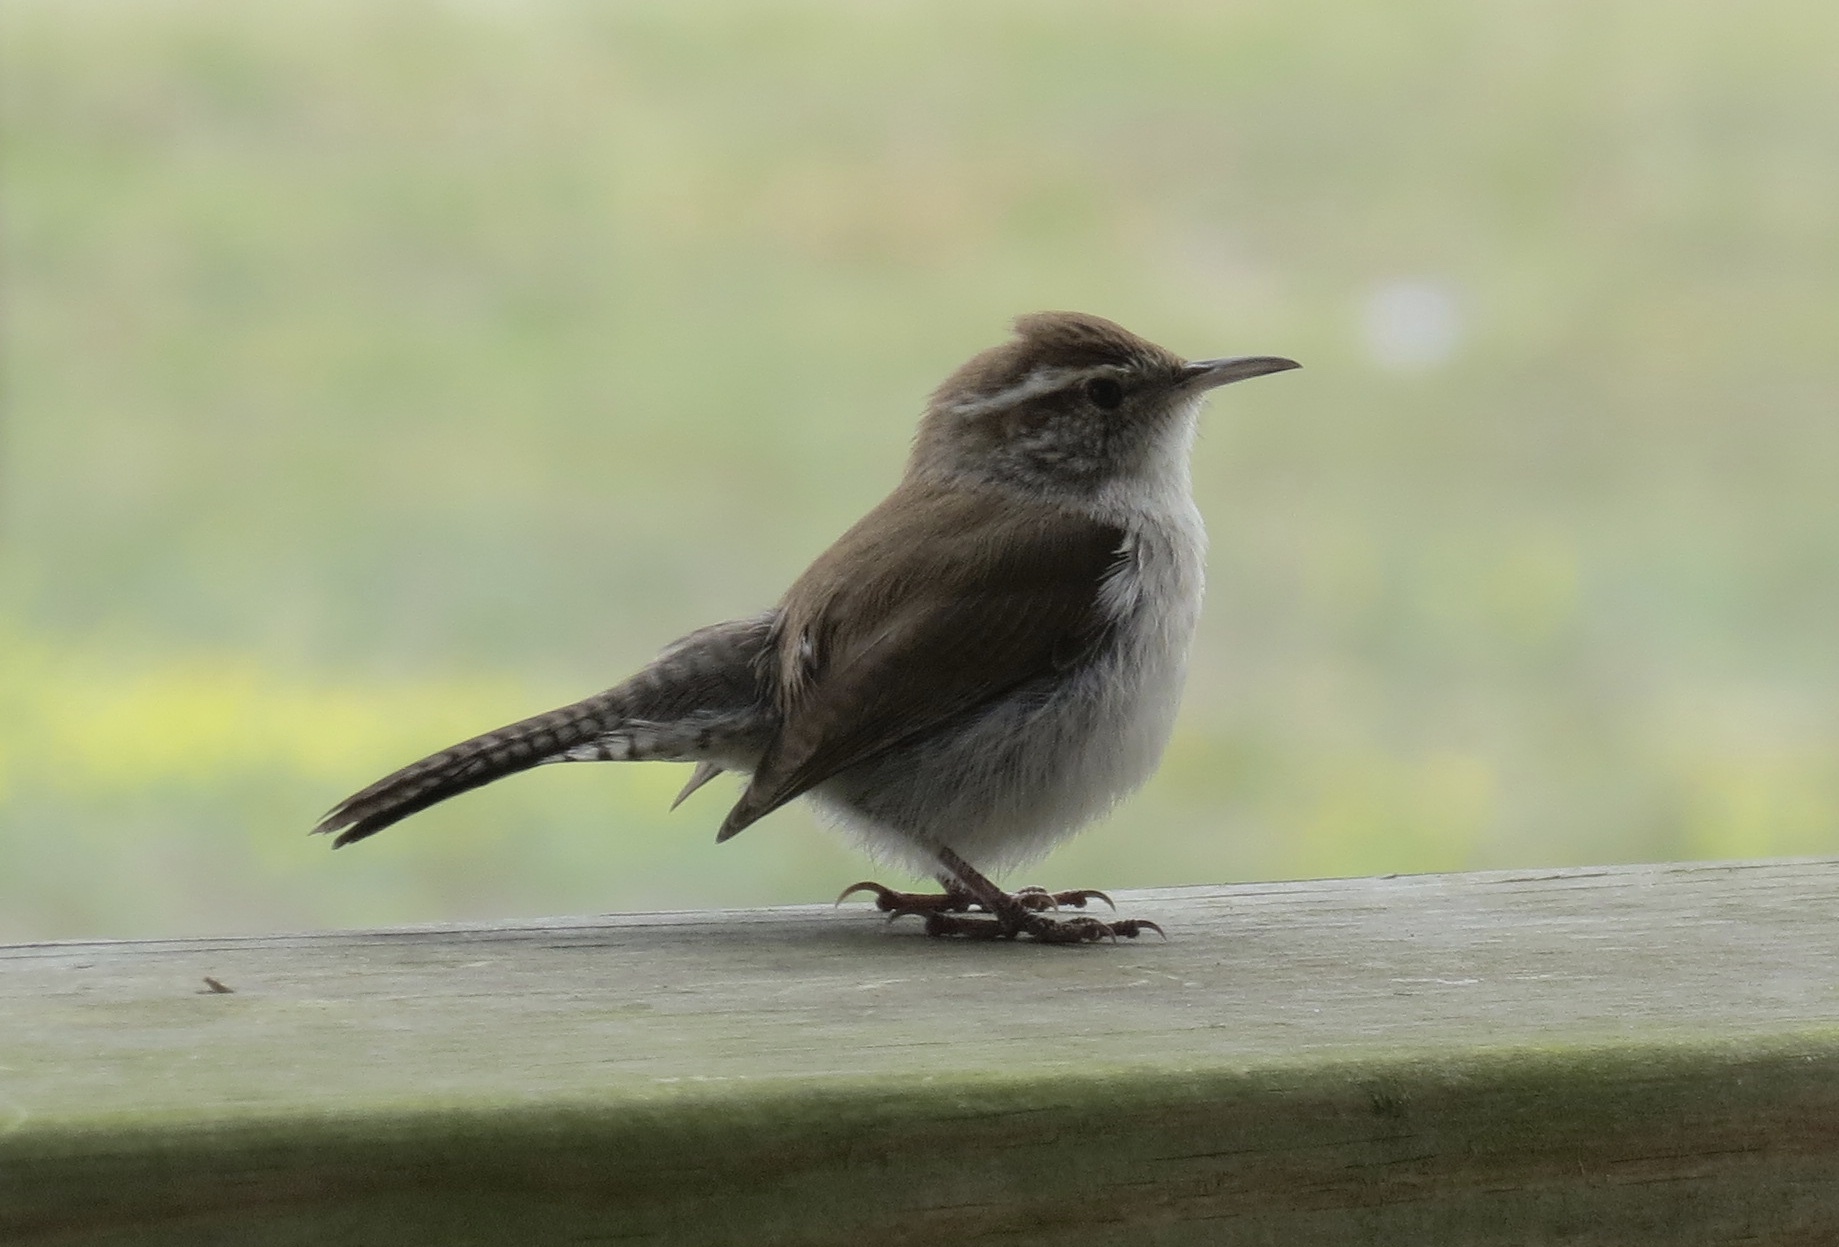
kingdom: Animalia
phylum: Chordata
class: Aves
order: Passeriformes
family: Troglodytidae
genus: Thryomanes
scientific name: Thryomanes bewickii
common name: Bewick's wren
